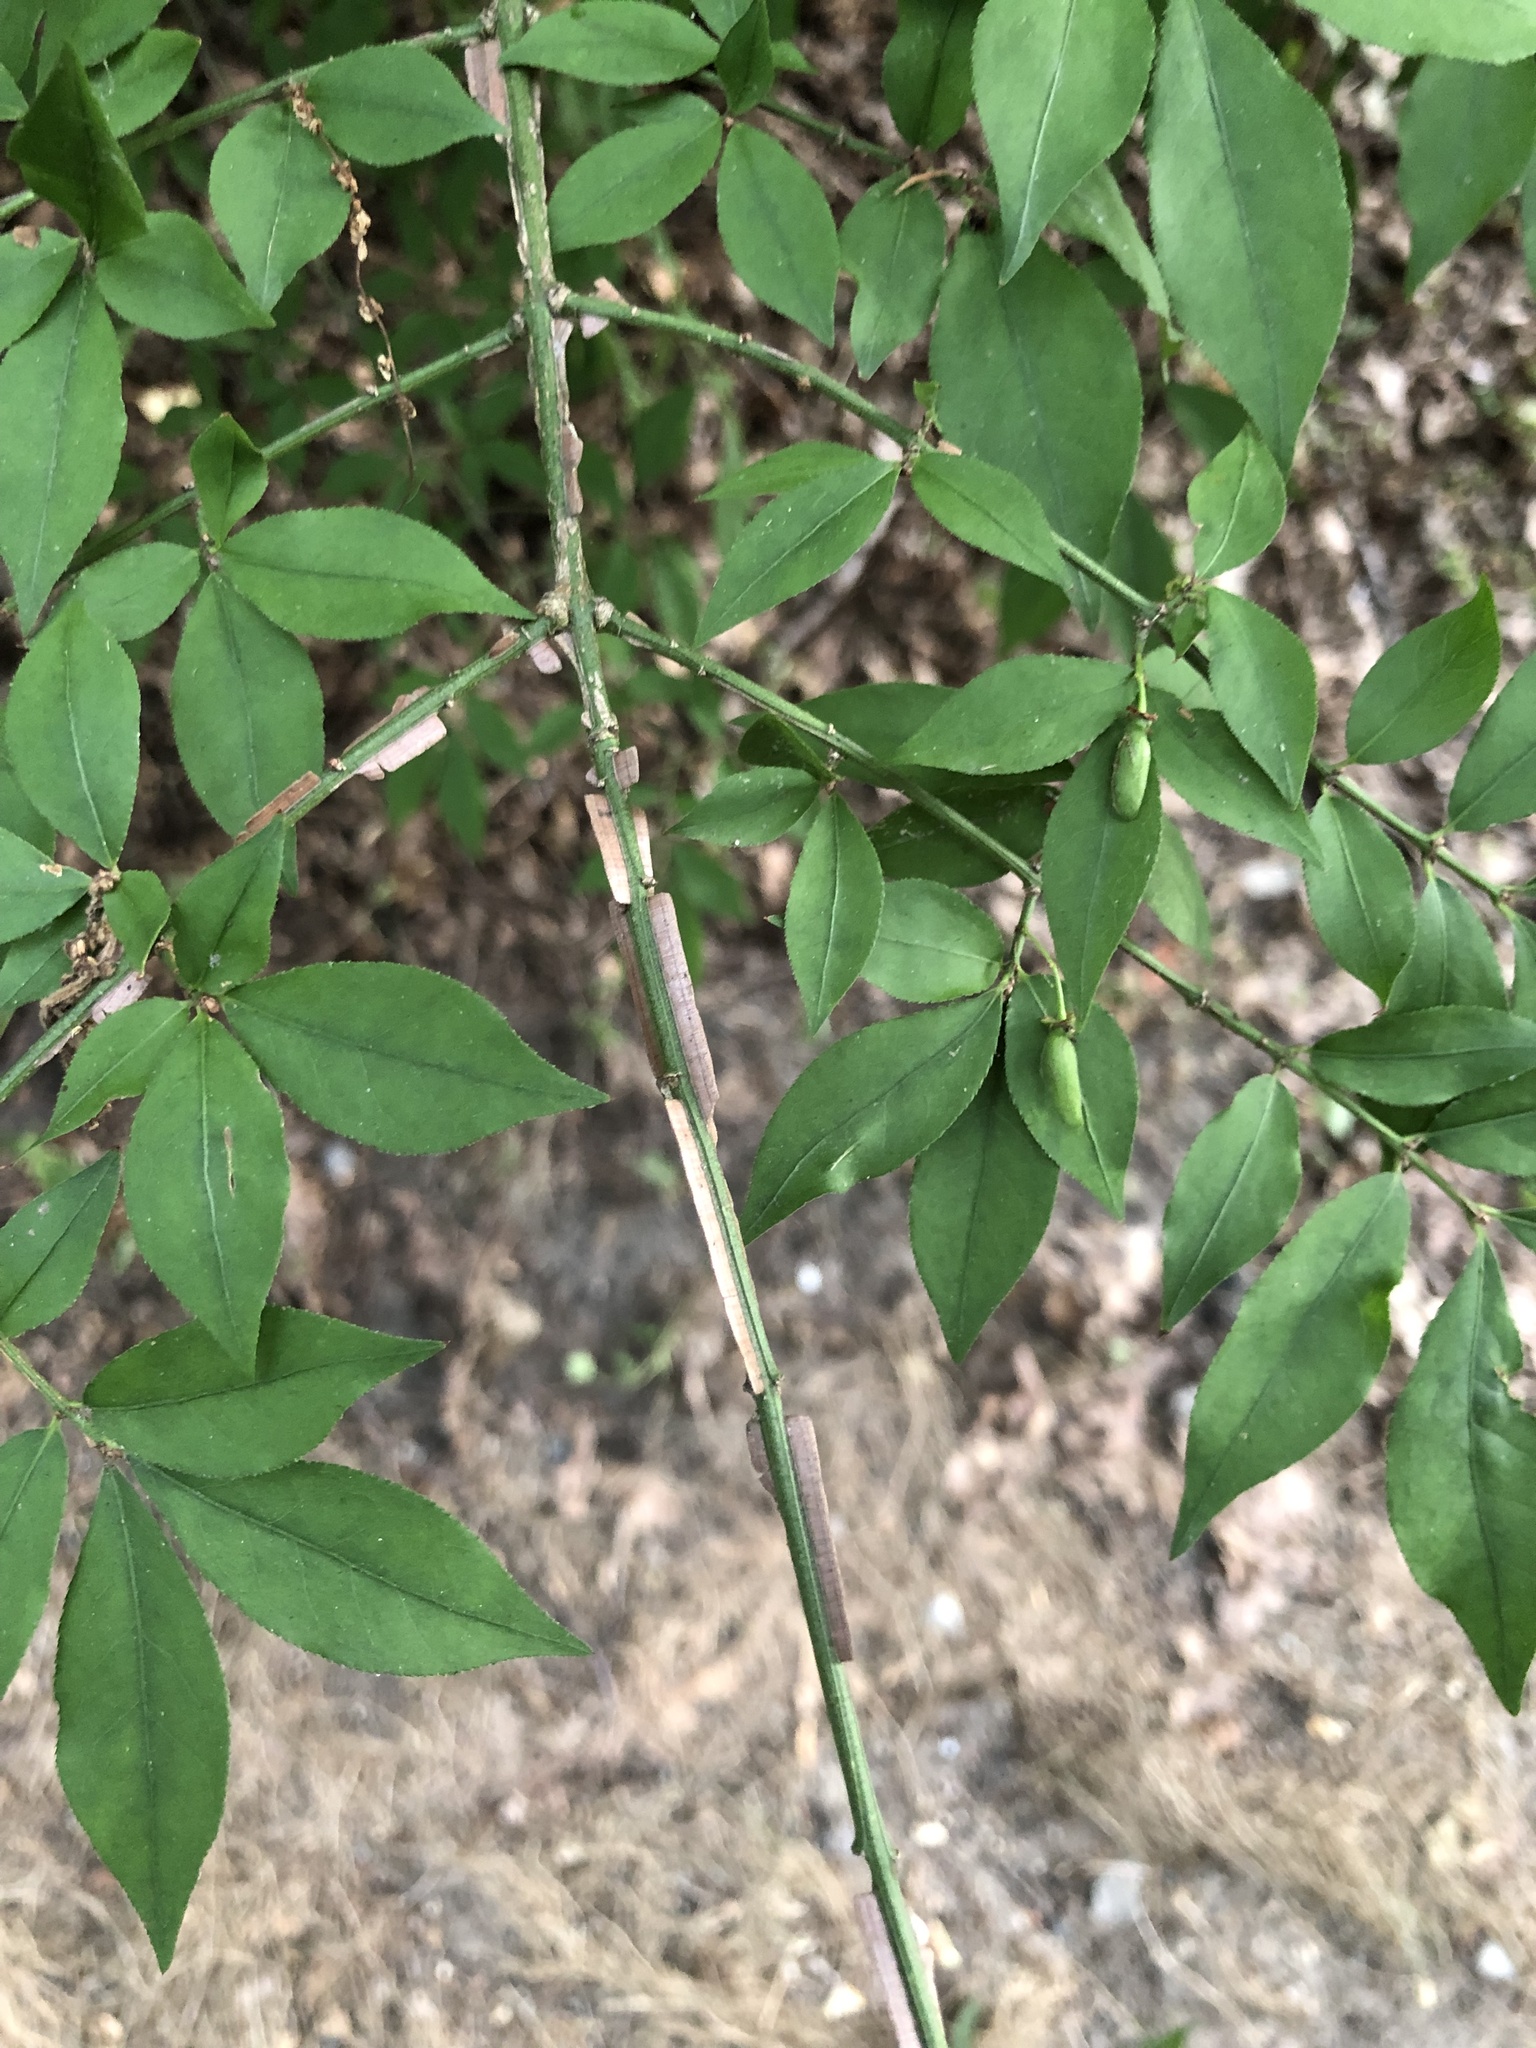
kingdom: Plantae
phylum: Tracheophyta
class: Magnoliopsida
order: Celastrales
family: Celastraceae
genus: Euonymus
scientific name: Euonymus alatus
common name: Winged euonymus
